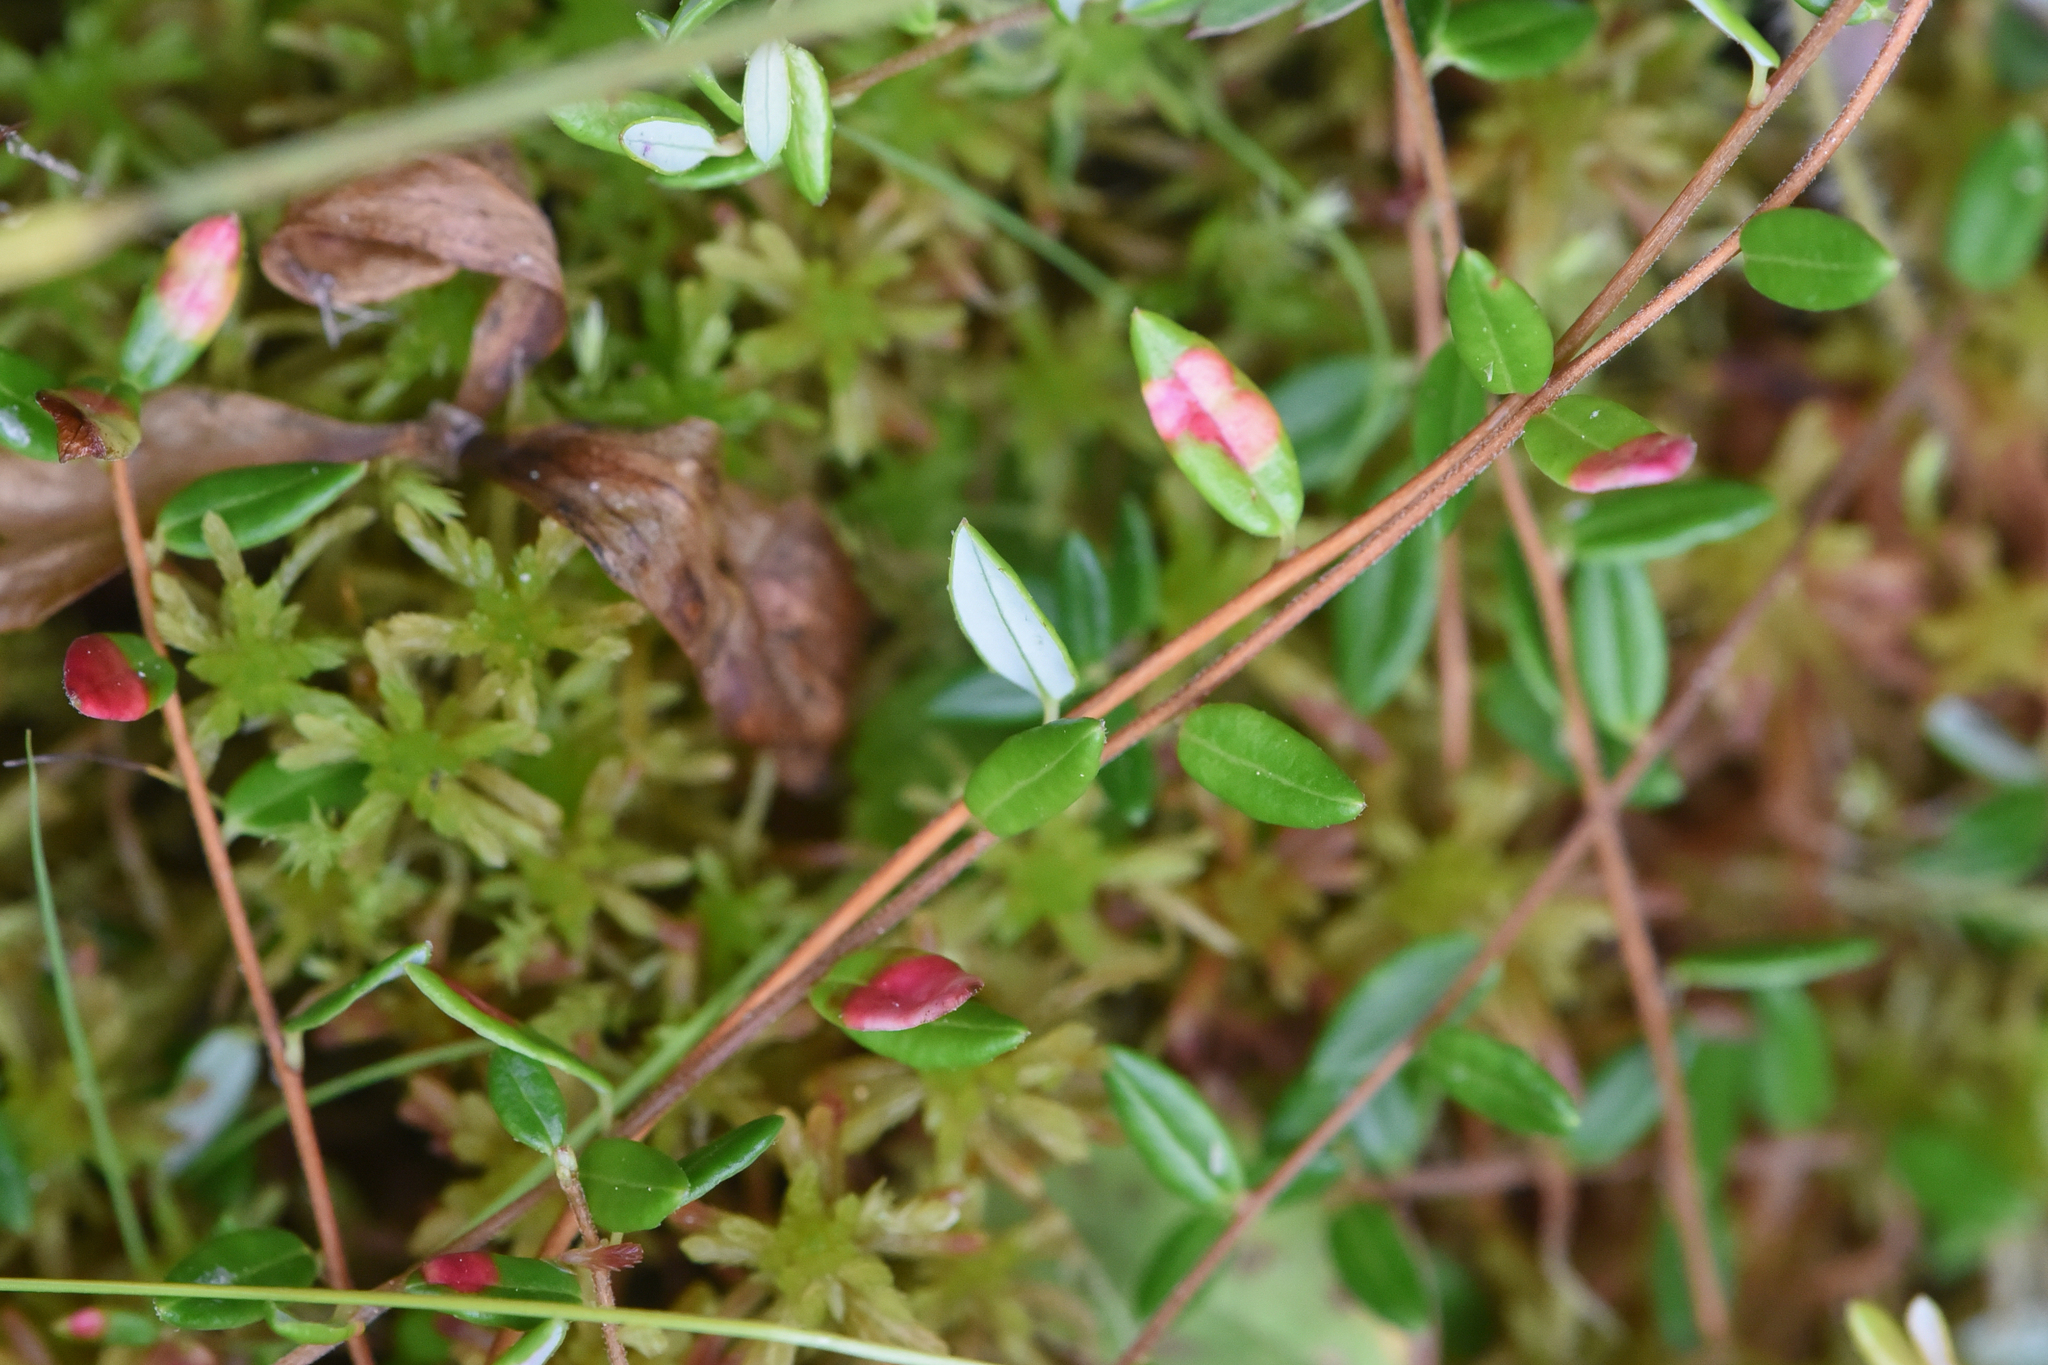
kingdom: Plantae
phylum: Tracheophyta
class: Magnoliopsida
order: Ericales
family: Ericaceae
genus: Vaccinium
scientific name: Vaccinium oxycoccos
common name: Cranberry
